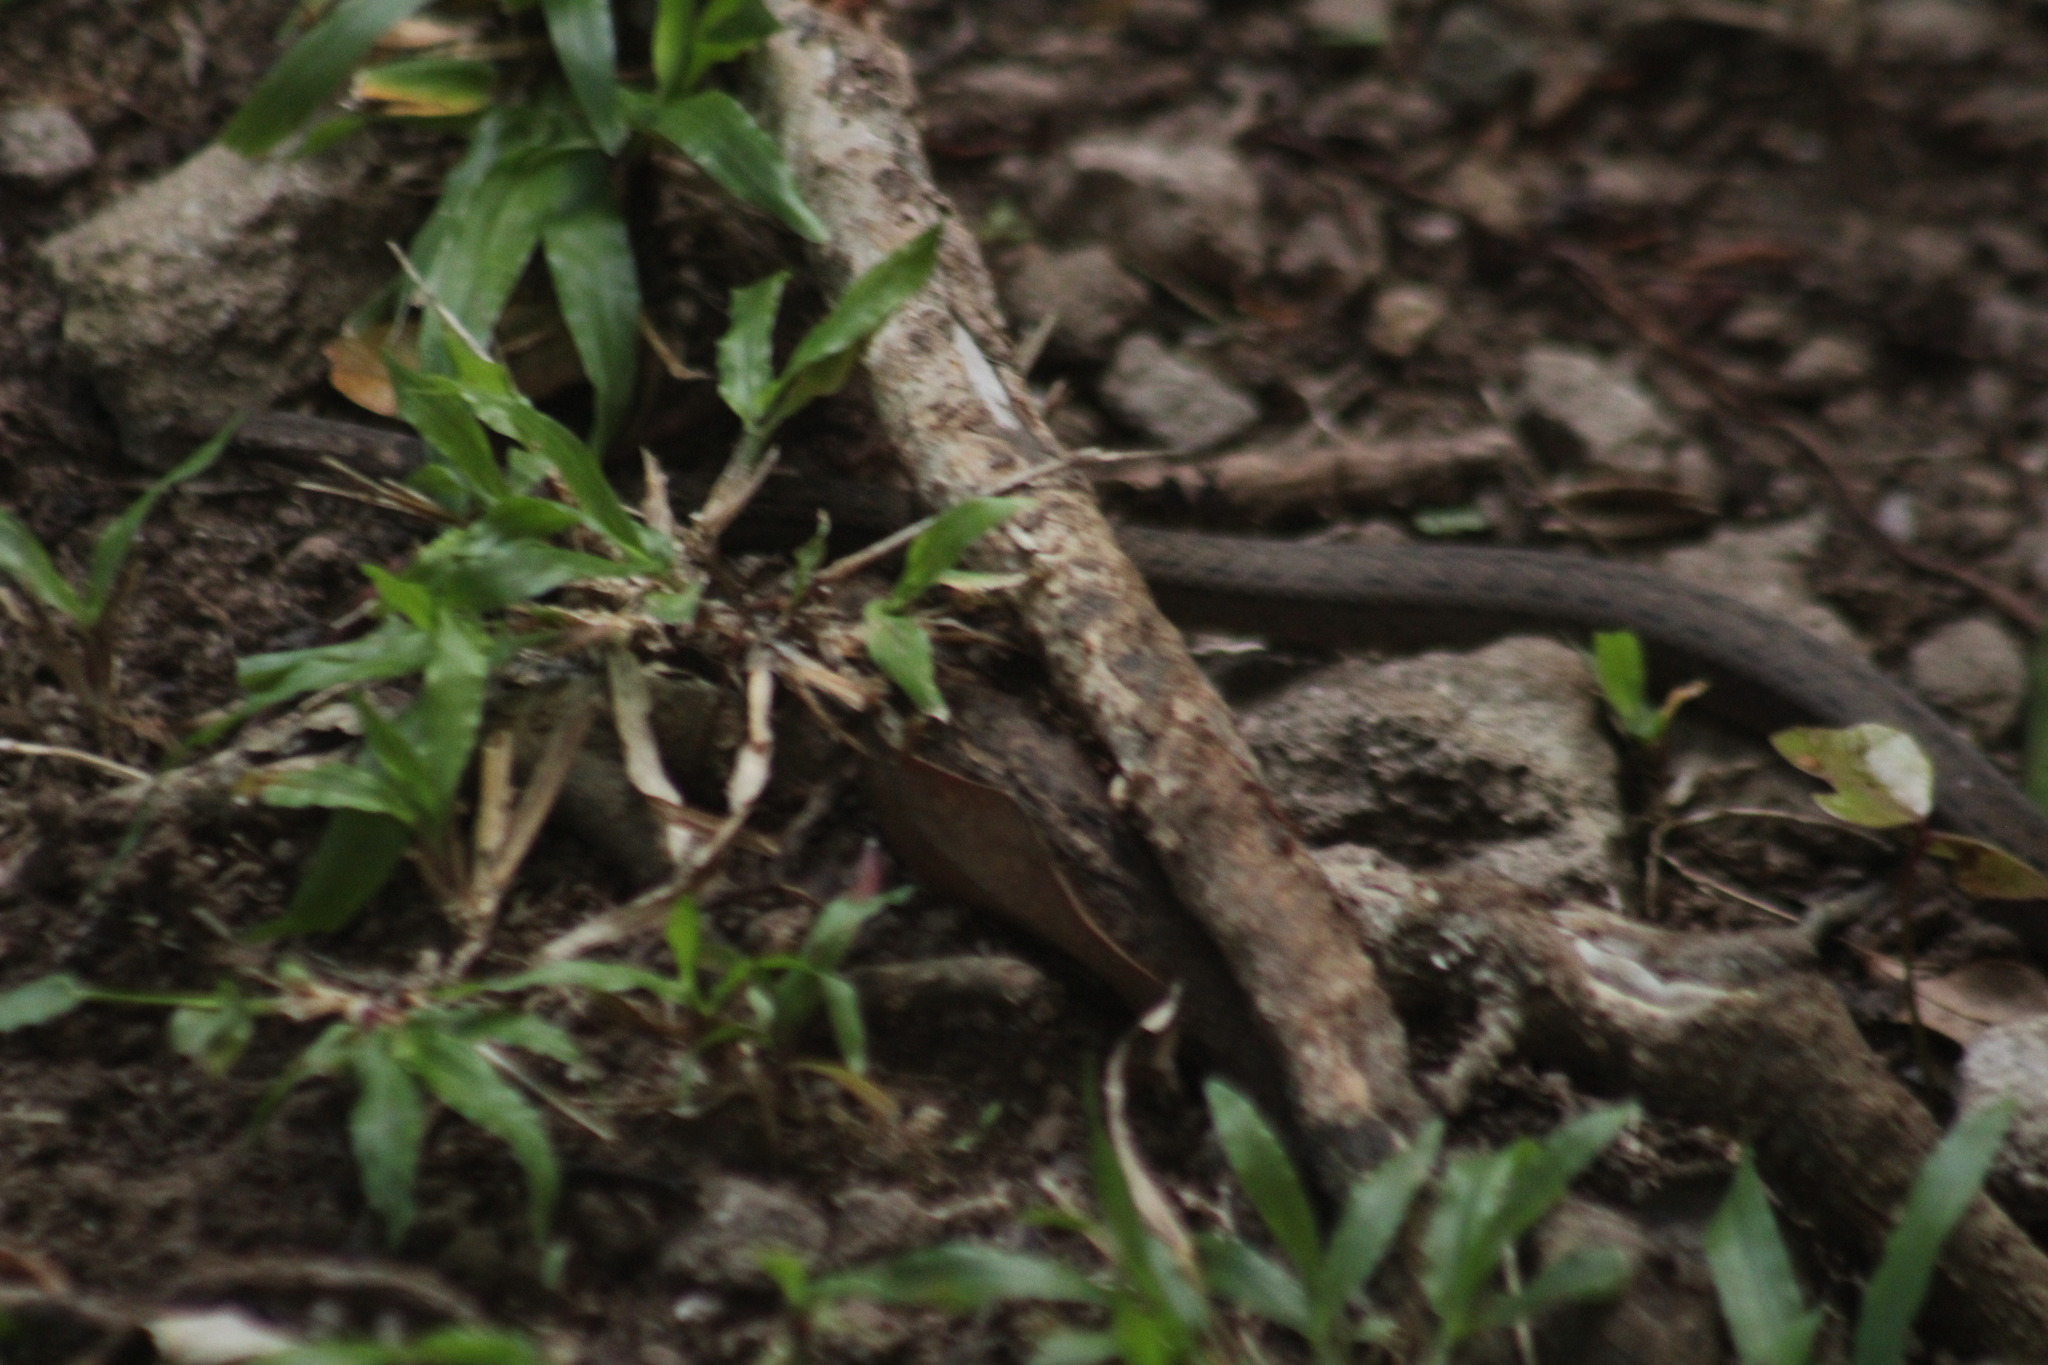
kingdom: Animalia
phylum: Chordata
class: Squamata
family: Colubridae
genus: Alsophis
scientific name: Alsophis rufiventris
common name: Orange-bellied racer
